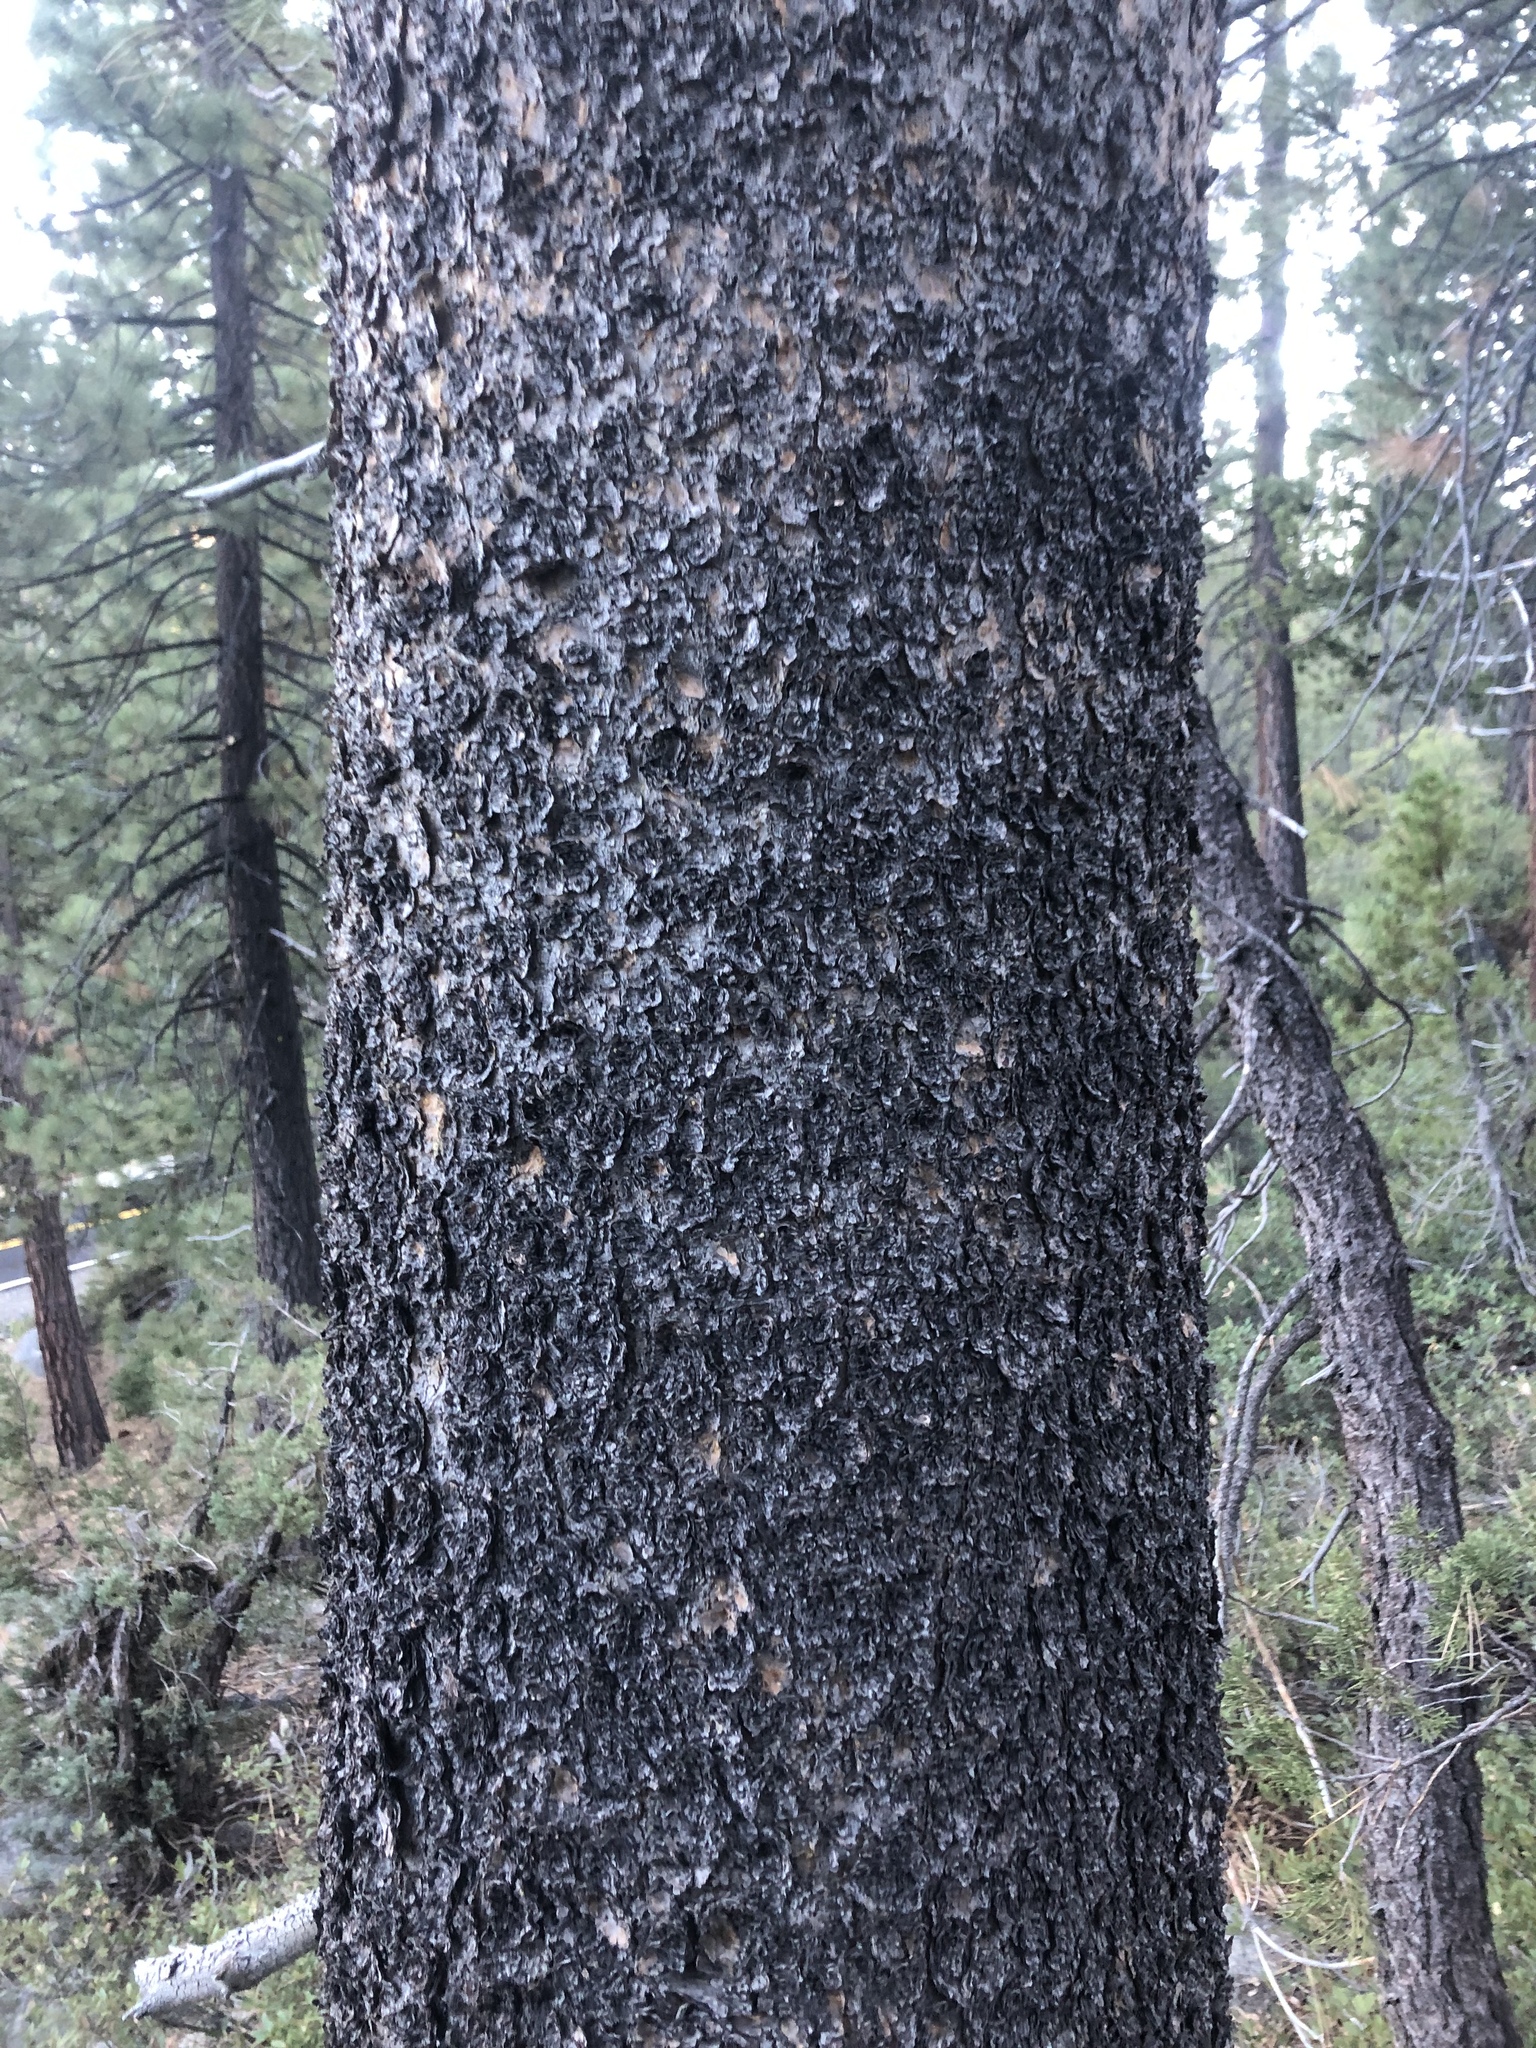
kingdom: Plantae
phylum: Tracheophyta
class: Pinopsida
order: Pinales
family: Pinaceae
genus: Pinus
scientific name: Pinus contorta
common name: Lodgepole pine
